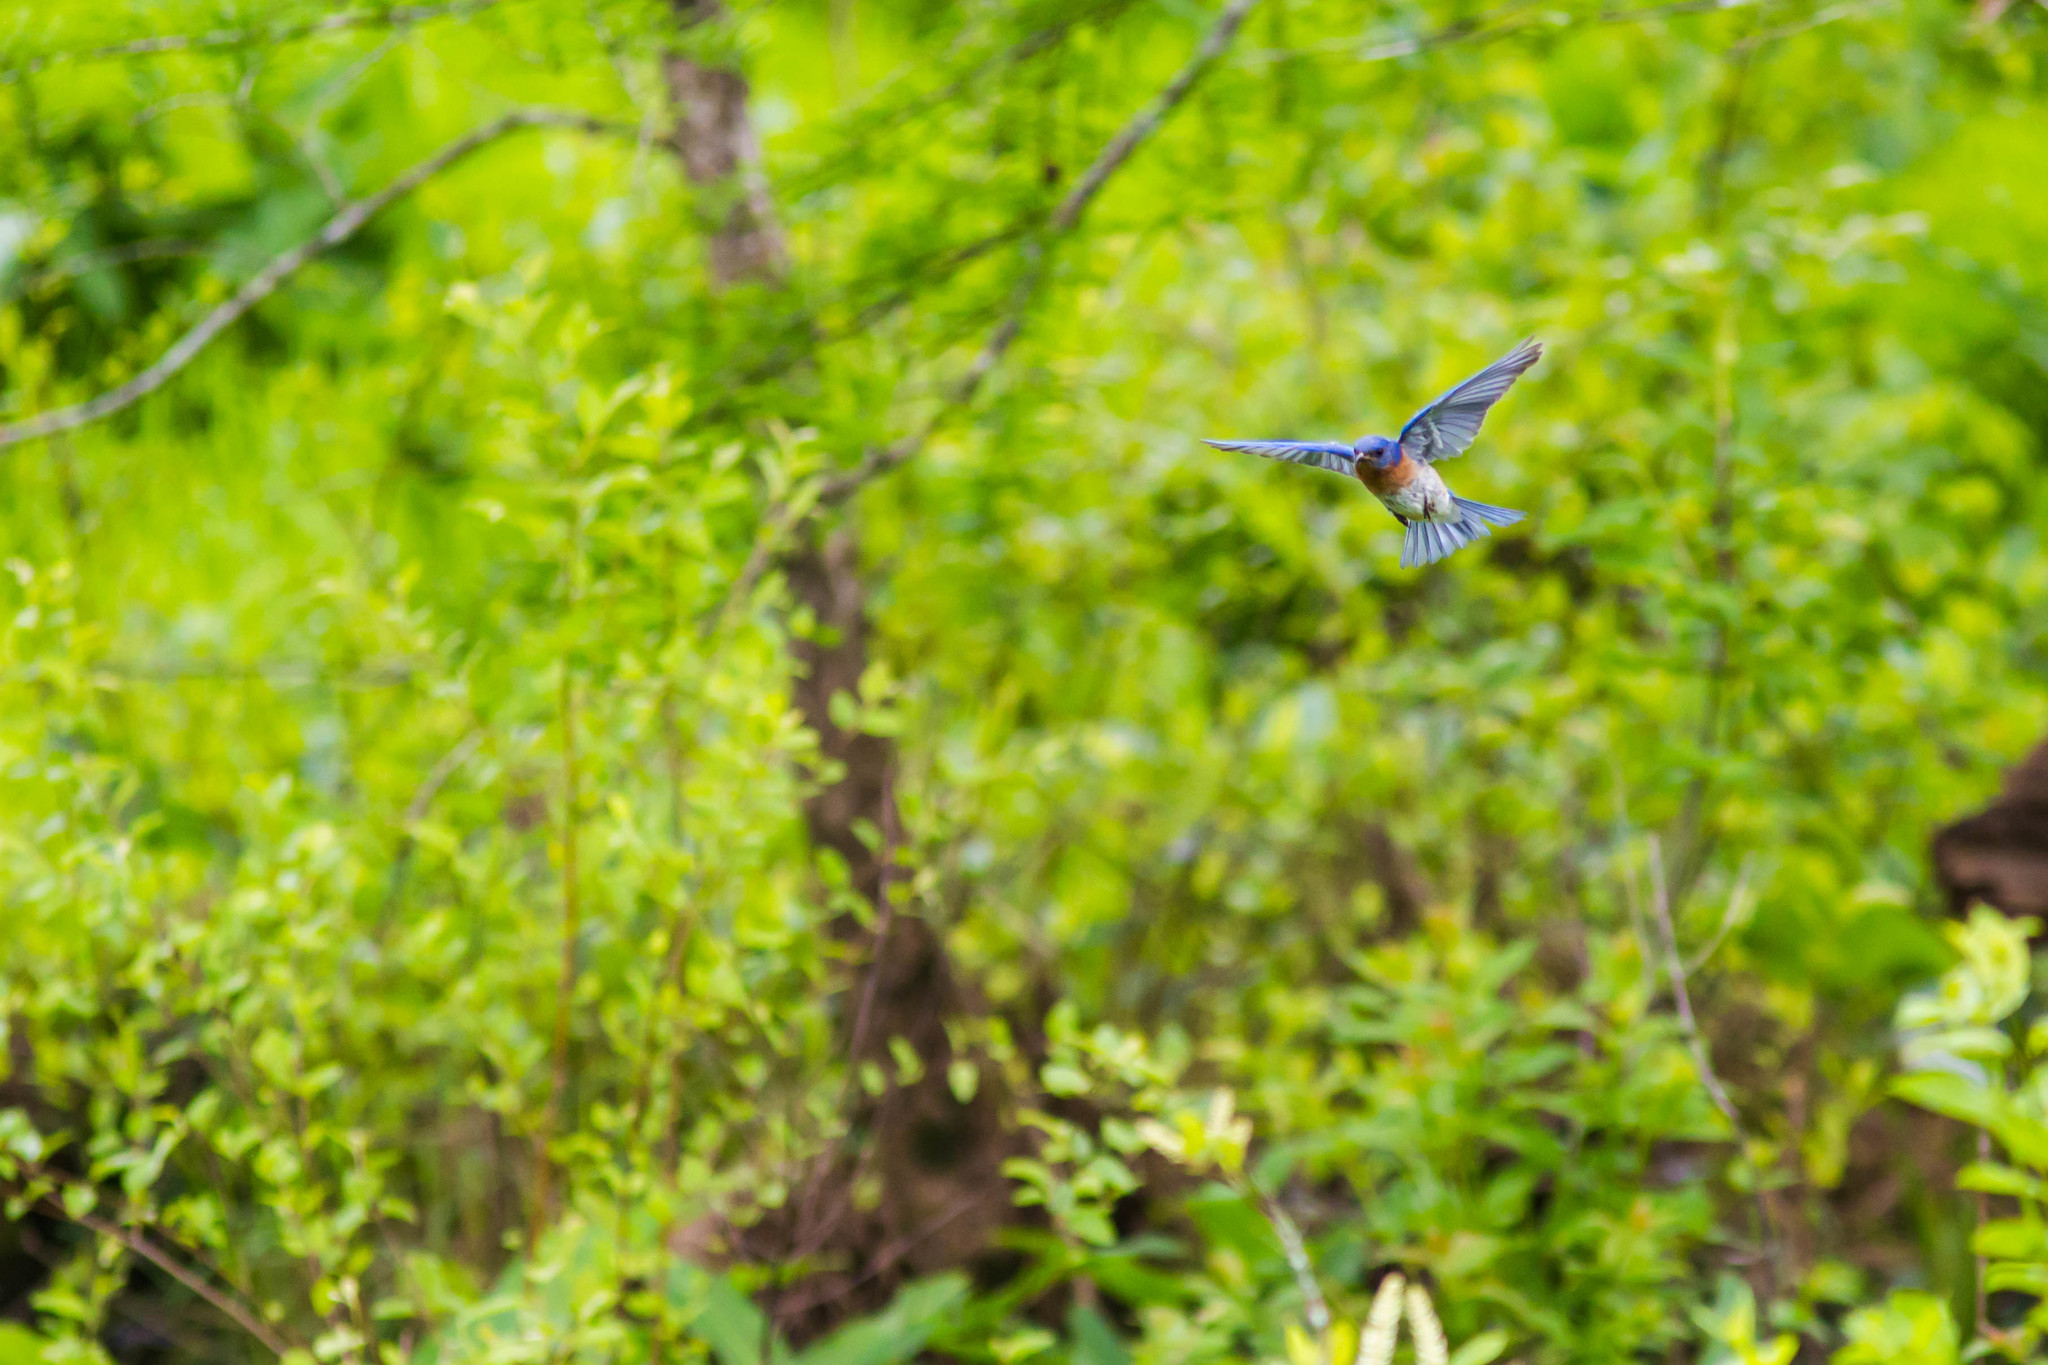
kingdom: Animalia
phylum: Chordata
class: Aves
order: Passeriformes
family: Turdidae
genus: Sialia
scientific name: Sialia sialis
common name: Eastern bluebird
